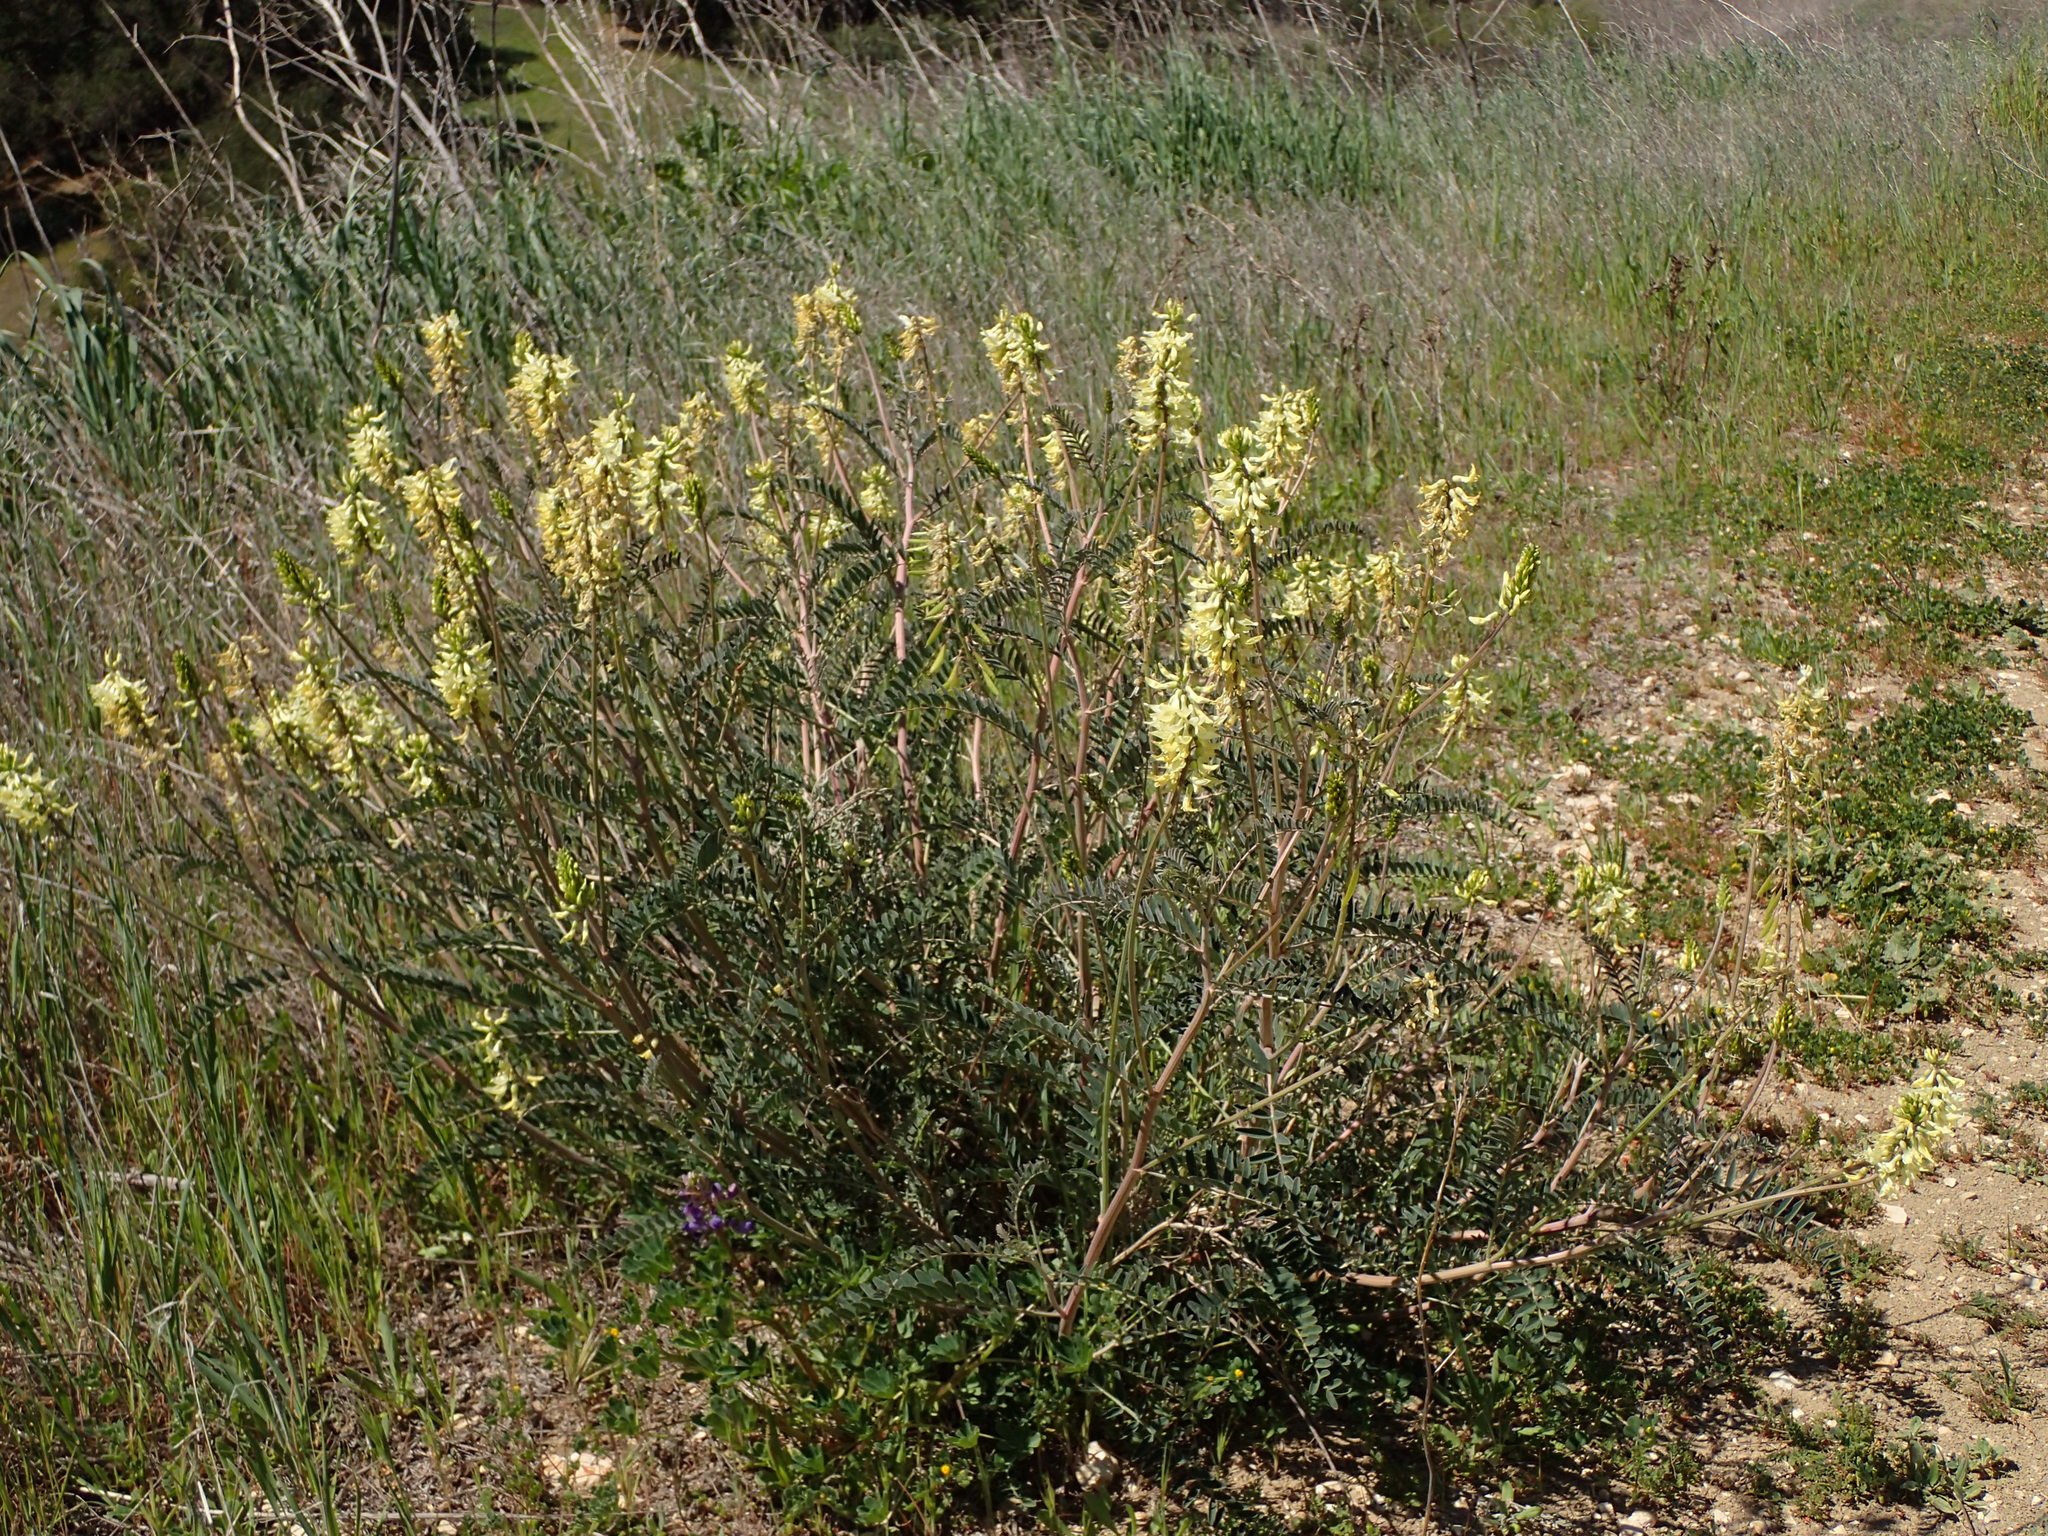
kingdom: Plantae
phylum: Tracheophyta
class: Magnoliopsida
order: Fabales
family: Fabaceae
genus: Astragalus
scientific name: Astragalus trichopodus
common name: Santa barbara milk-vetch
